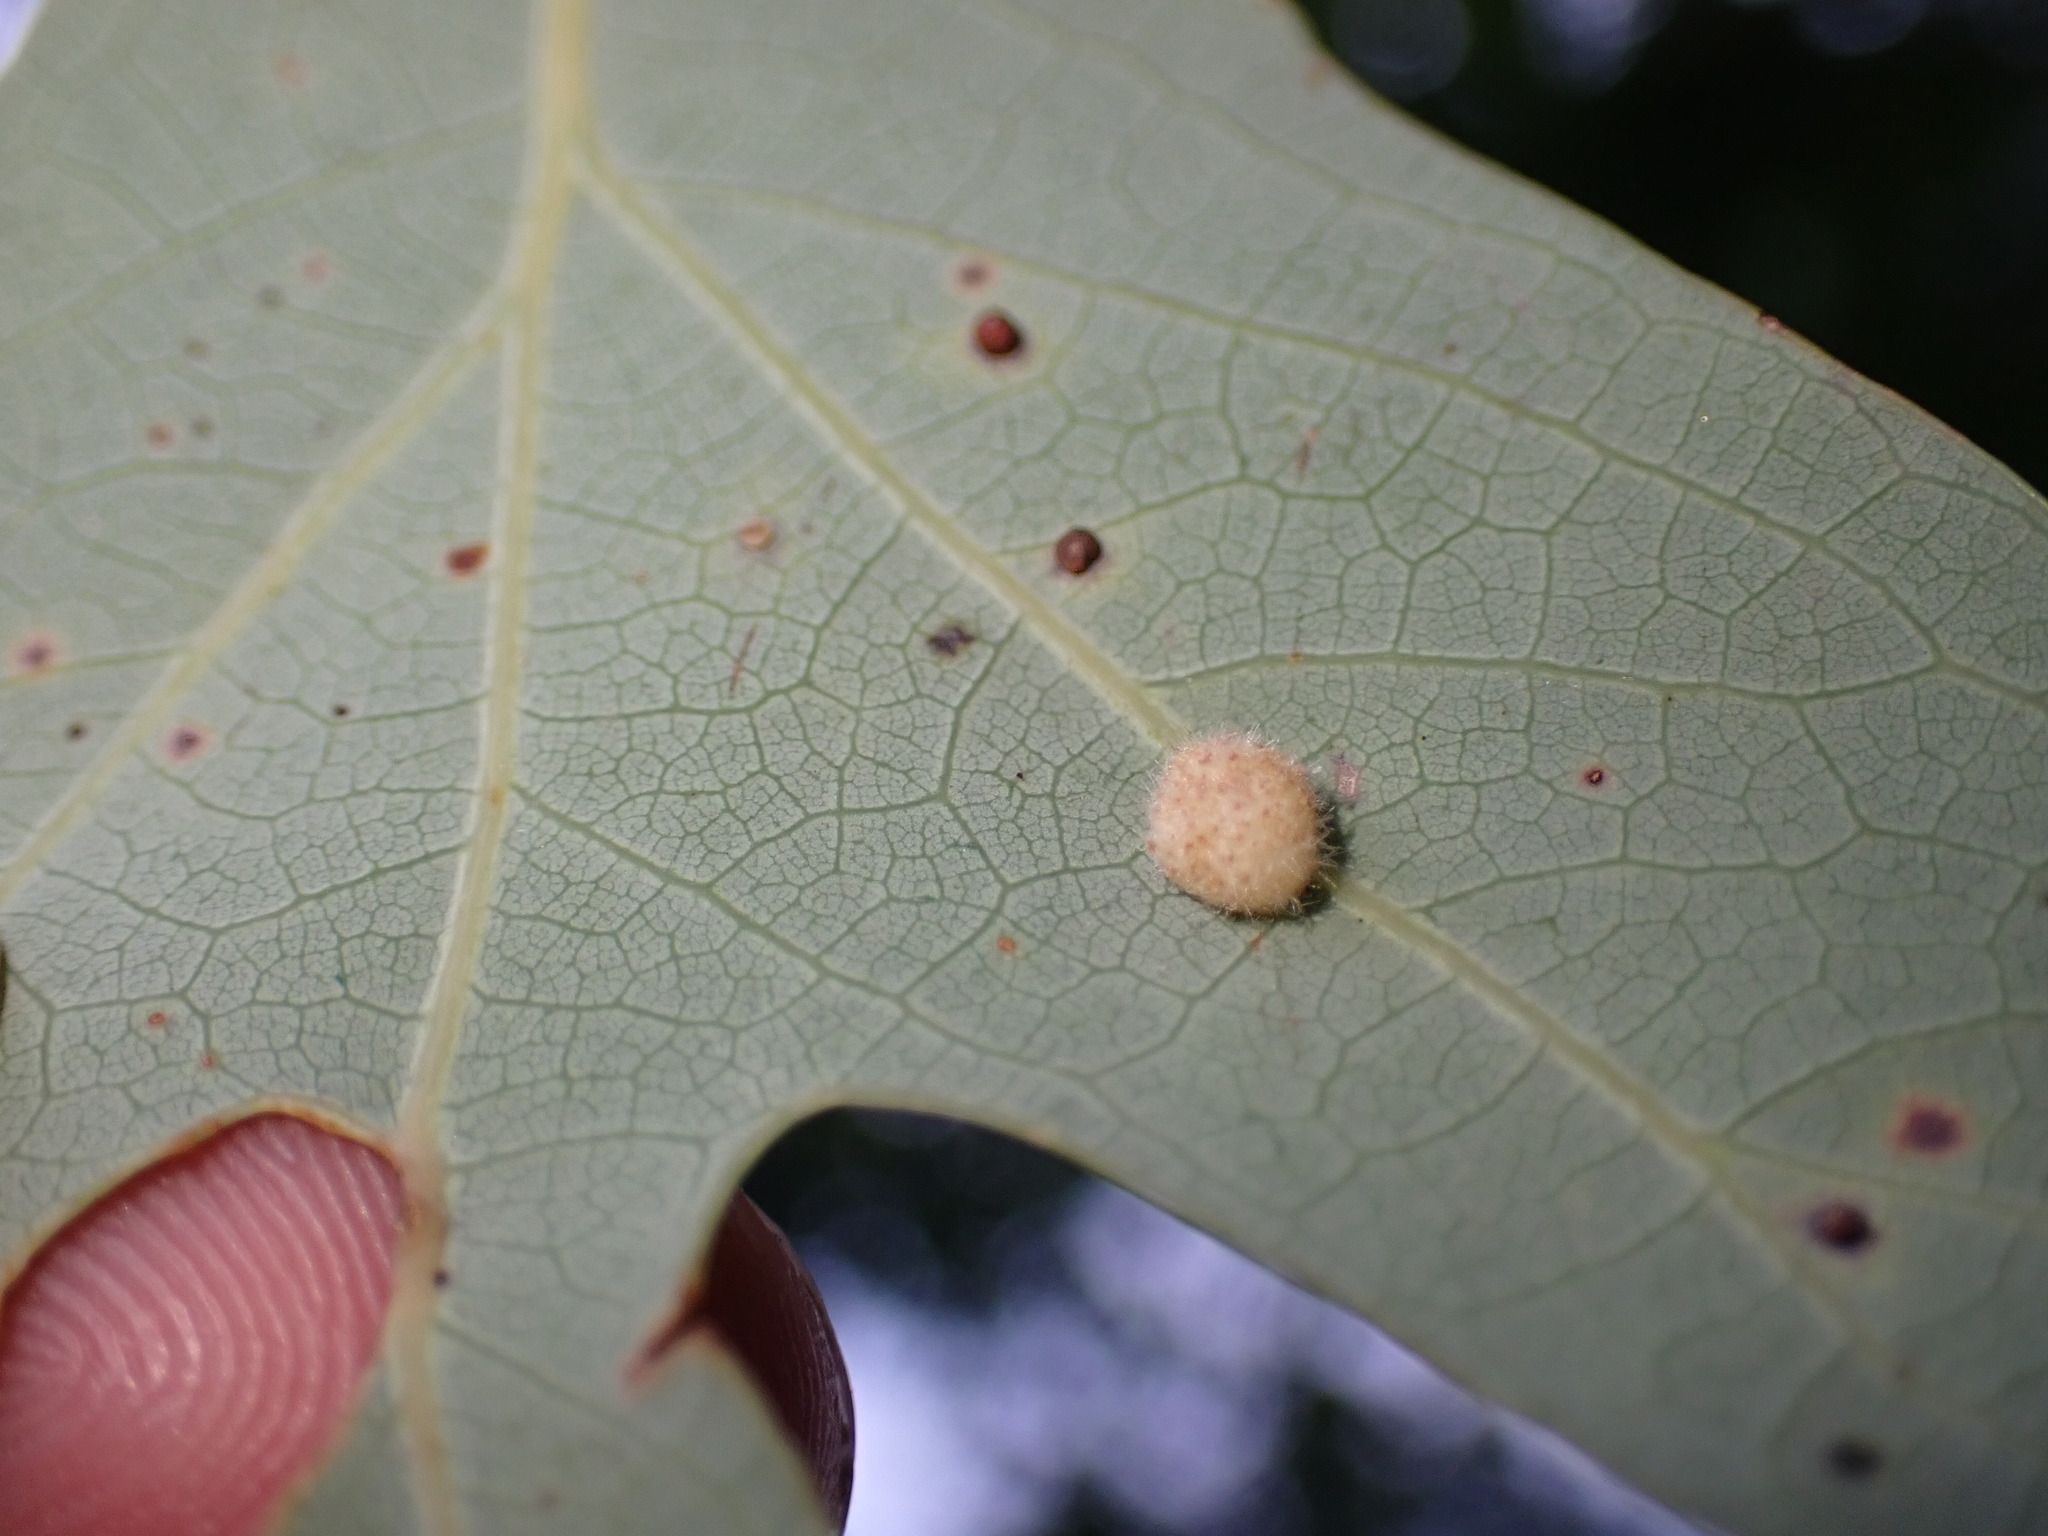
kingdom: Animalia
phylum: Arthropoda
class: Insecta
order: Hymenoptera
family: Cynipidae
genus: Philonix
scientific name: Philonix fulvicollis
